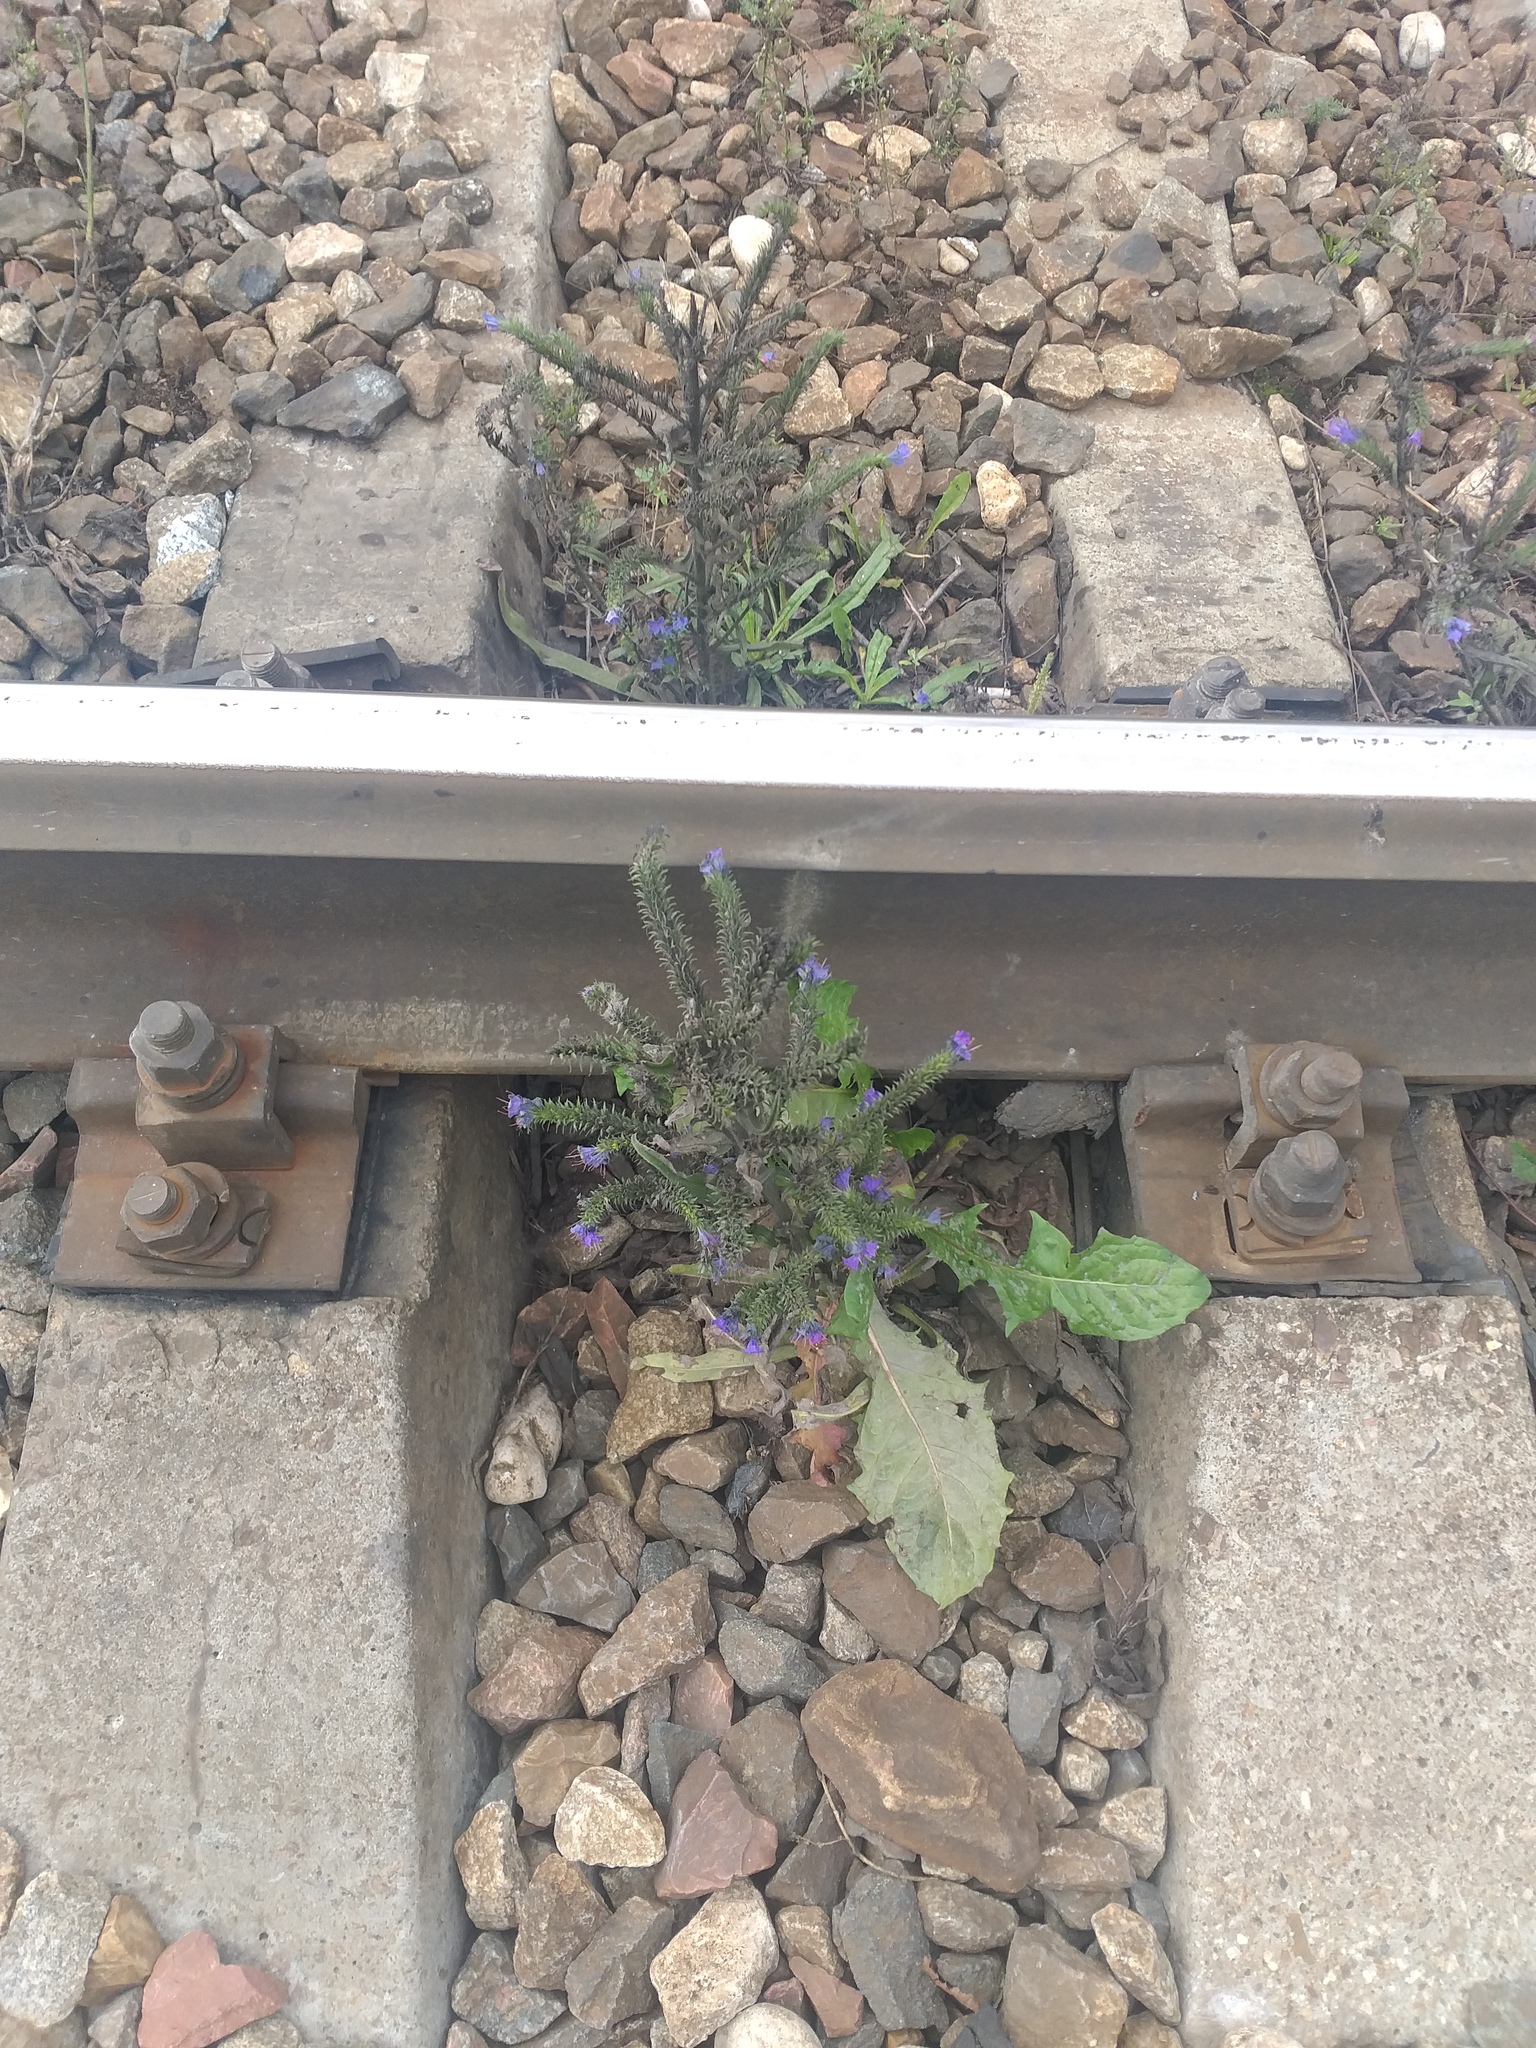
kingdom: Plantae
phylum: Tracheophyta
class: Magnoliopsida
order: Boraginales
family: Boraginaceae
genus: Echium
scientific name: Echium vulgare
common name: Common viper's bugloss
